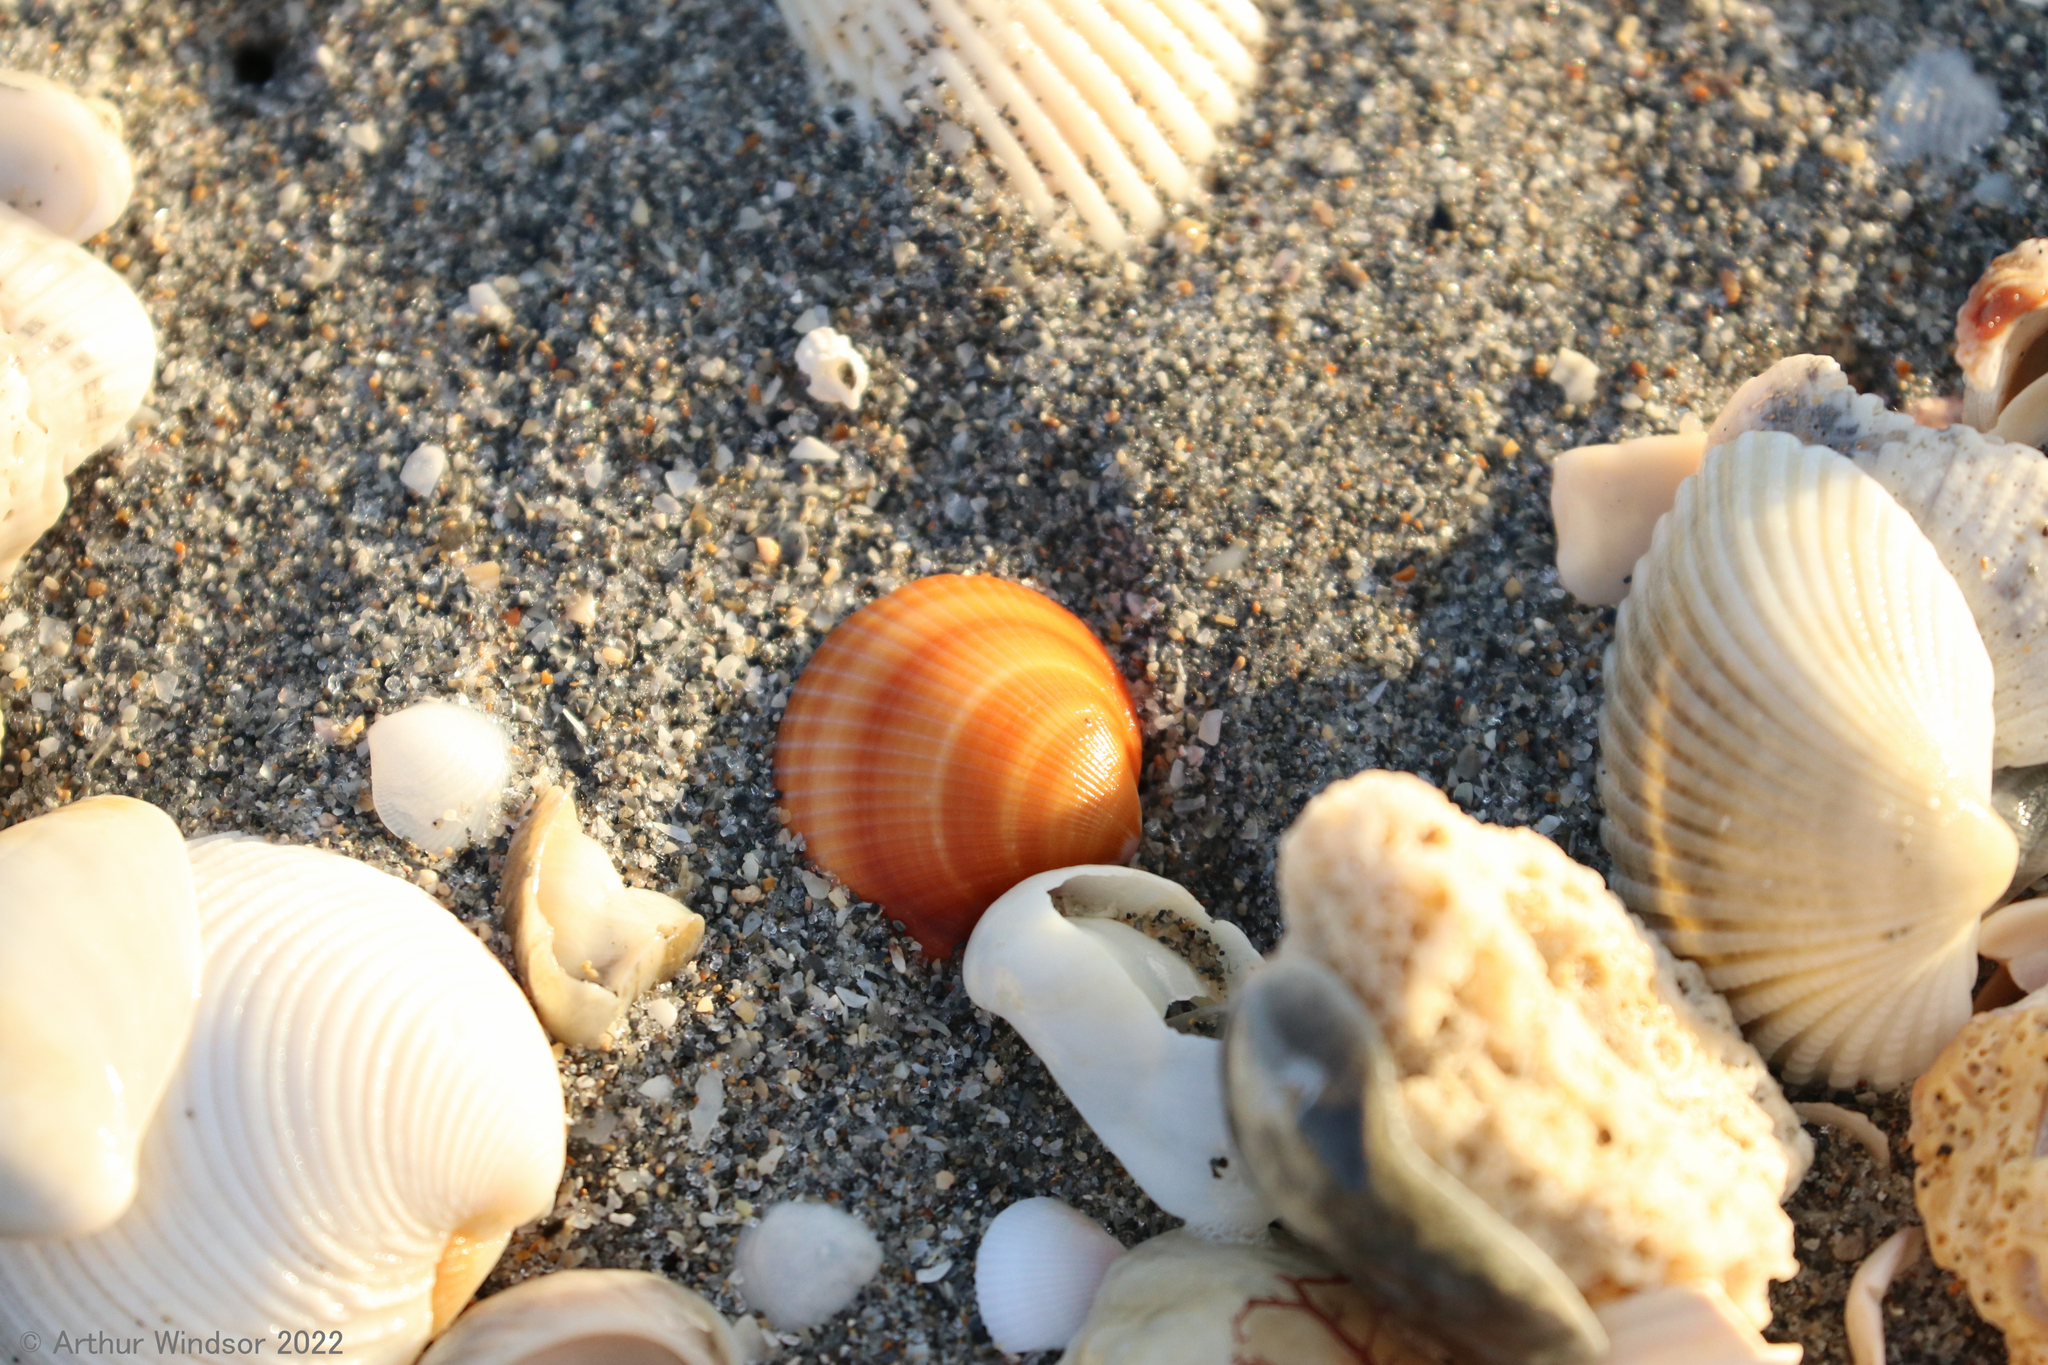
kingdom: Animalia
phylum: Mollusca
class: Bivalvia
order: Arcida
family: Glycymerididae
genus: Glycymeris
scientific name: Glycymeris spectralis
